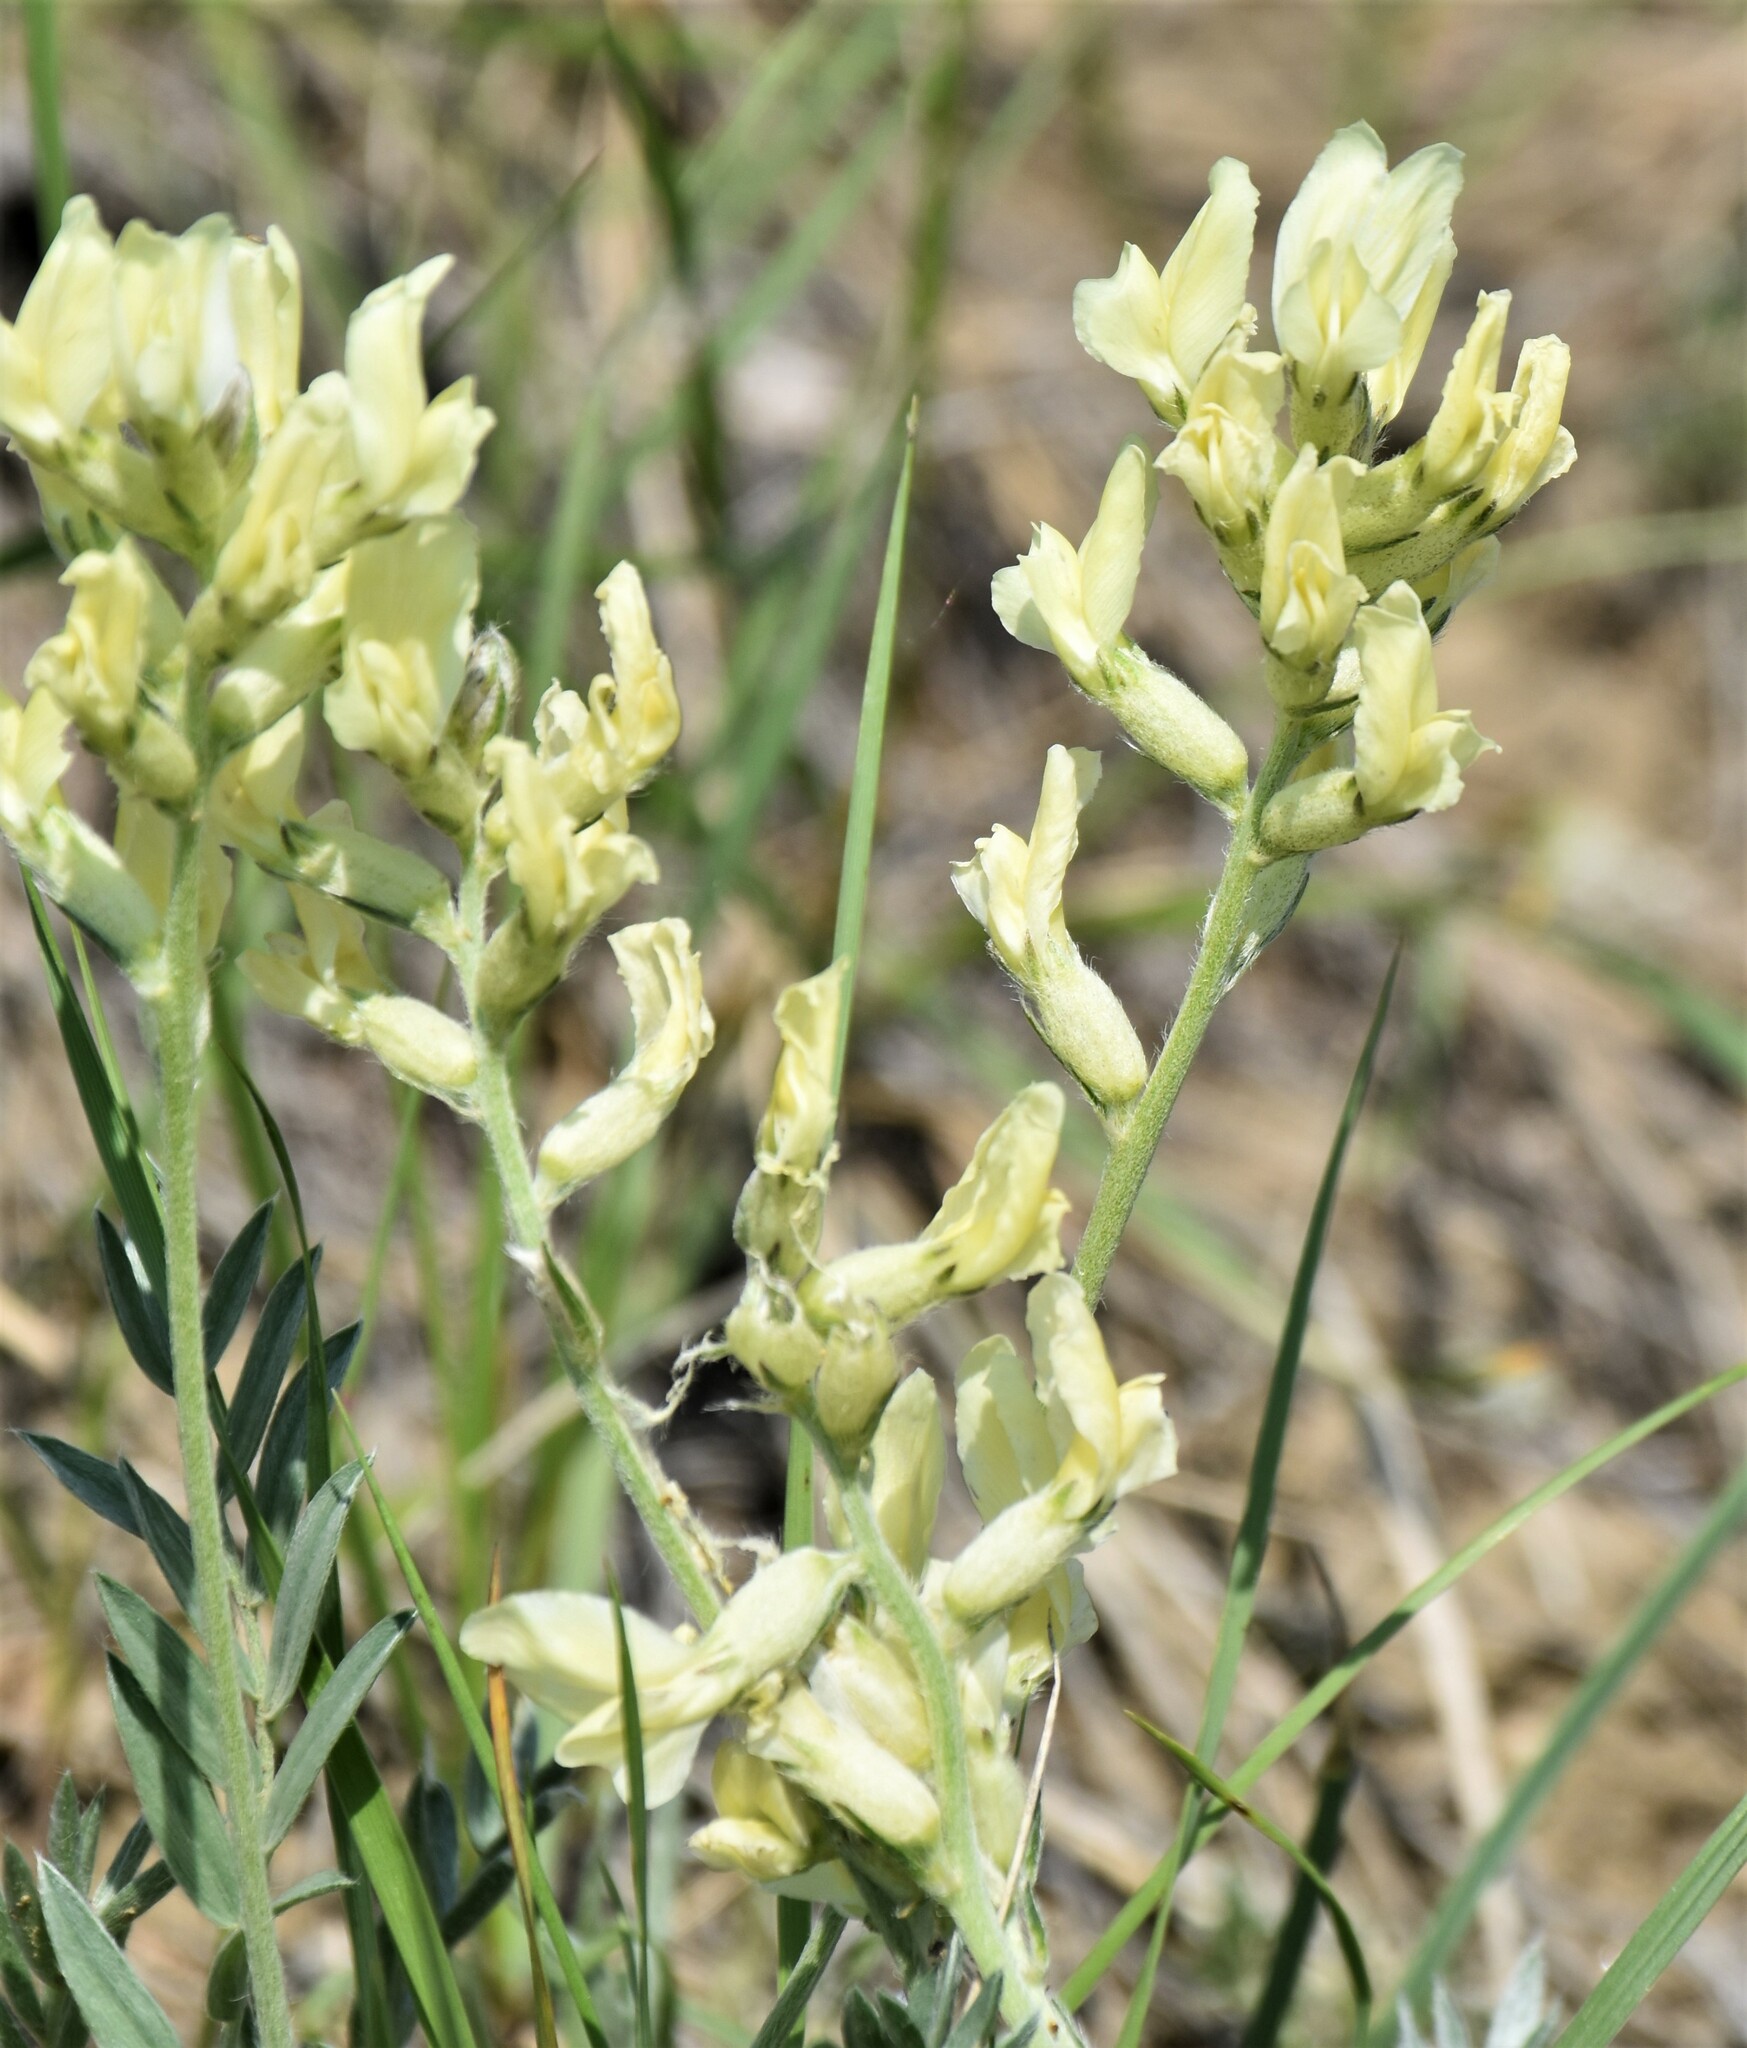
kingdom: Plantae
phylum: Tracheophyta
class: Magnoliopsida
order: Fabales
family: Fabaceae
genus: Oxytropis
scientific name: Oxytropis sericea
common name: Silky locoweed
